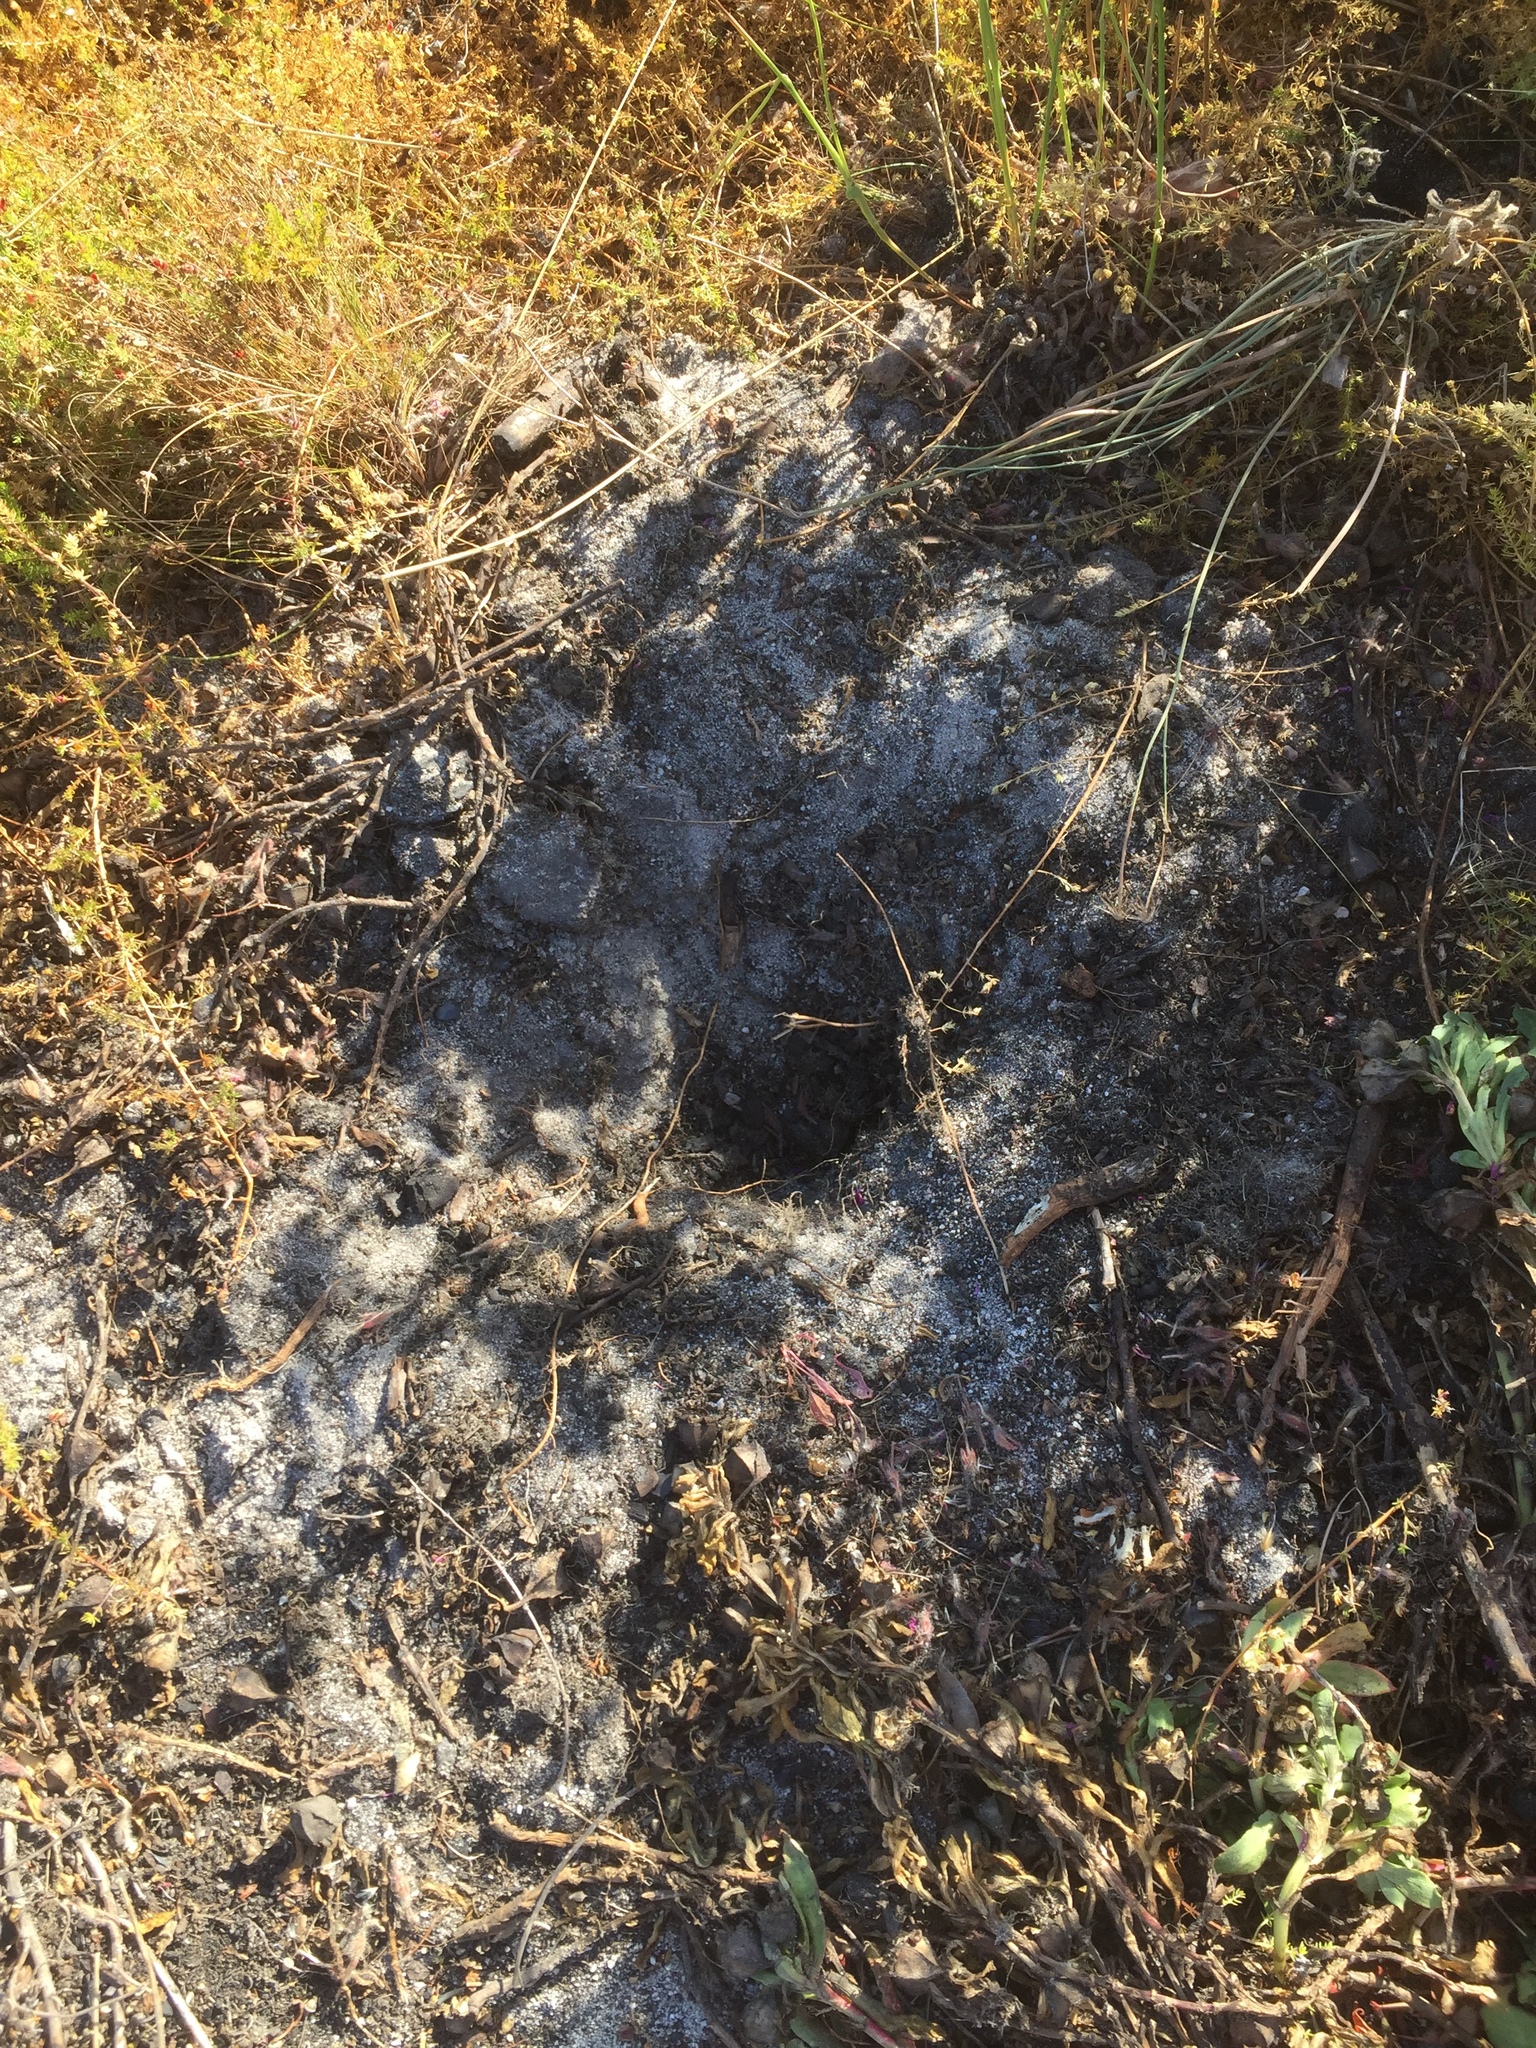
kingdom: Plantae
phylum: Tracheophyta
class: Magnoliopsida
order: Caryophyllales
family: Aizoaceae
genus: Skiatophytum
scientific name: Skiatophytum tripolium
